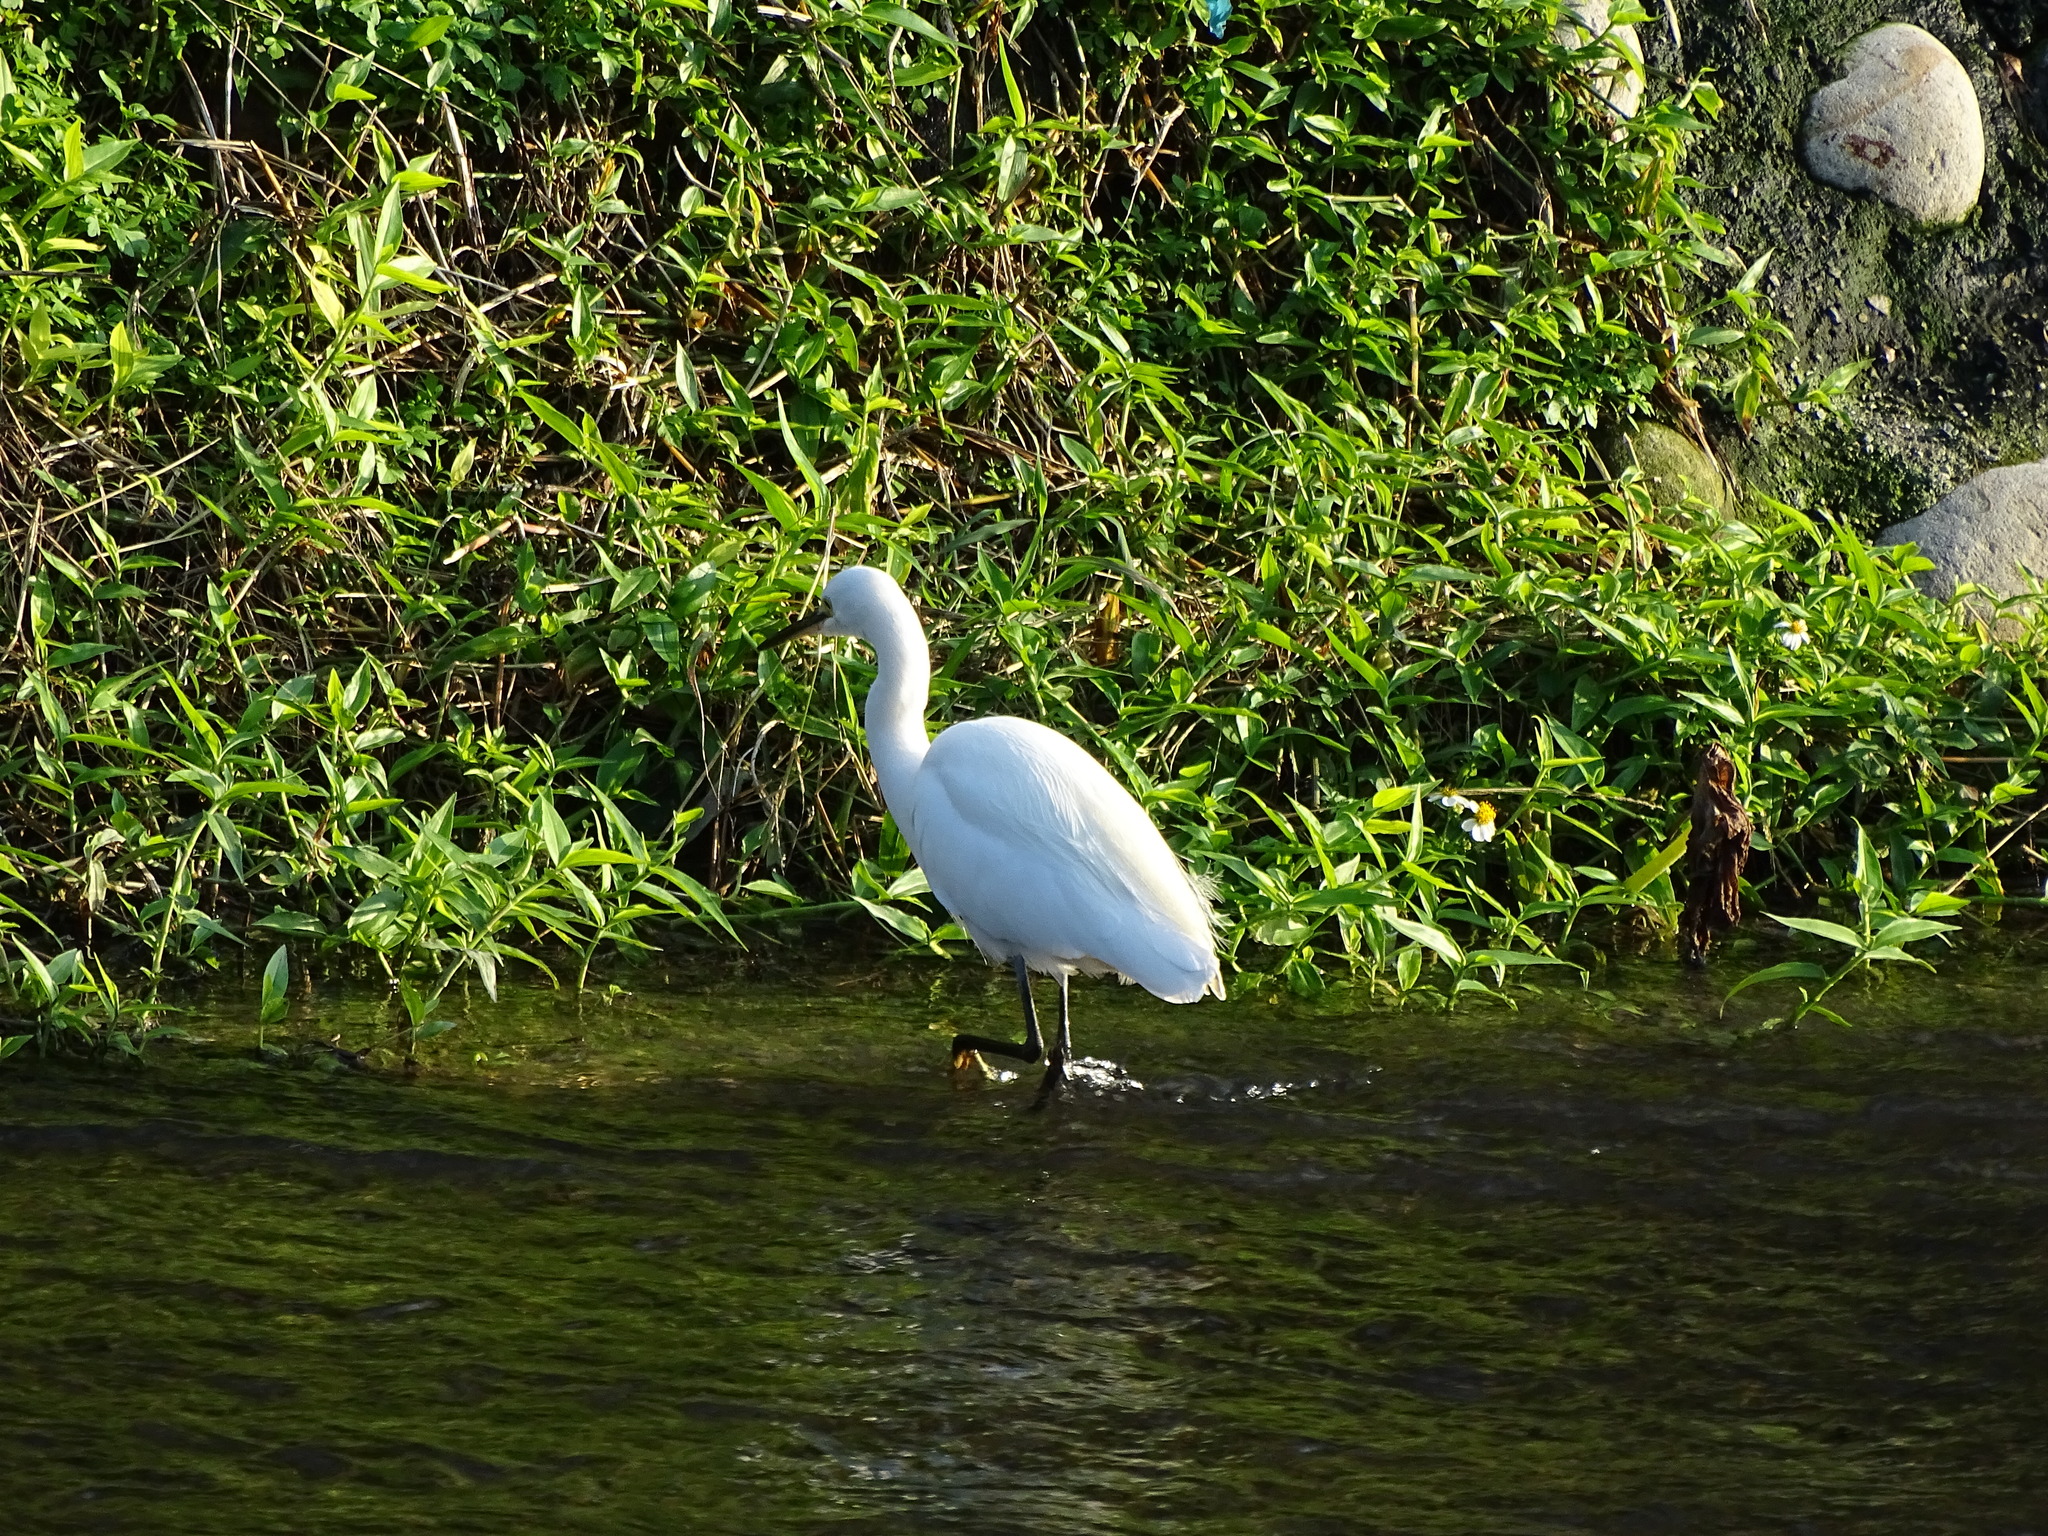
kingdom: Animalia
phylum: Chordata
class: Aves
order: Pelecaniformes
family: Ardeidae
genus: Egretta
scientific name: Egretta garzetta
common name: Little egret
